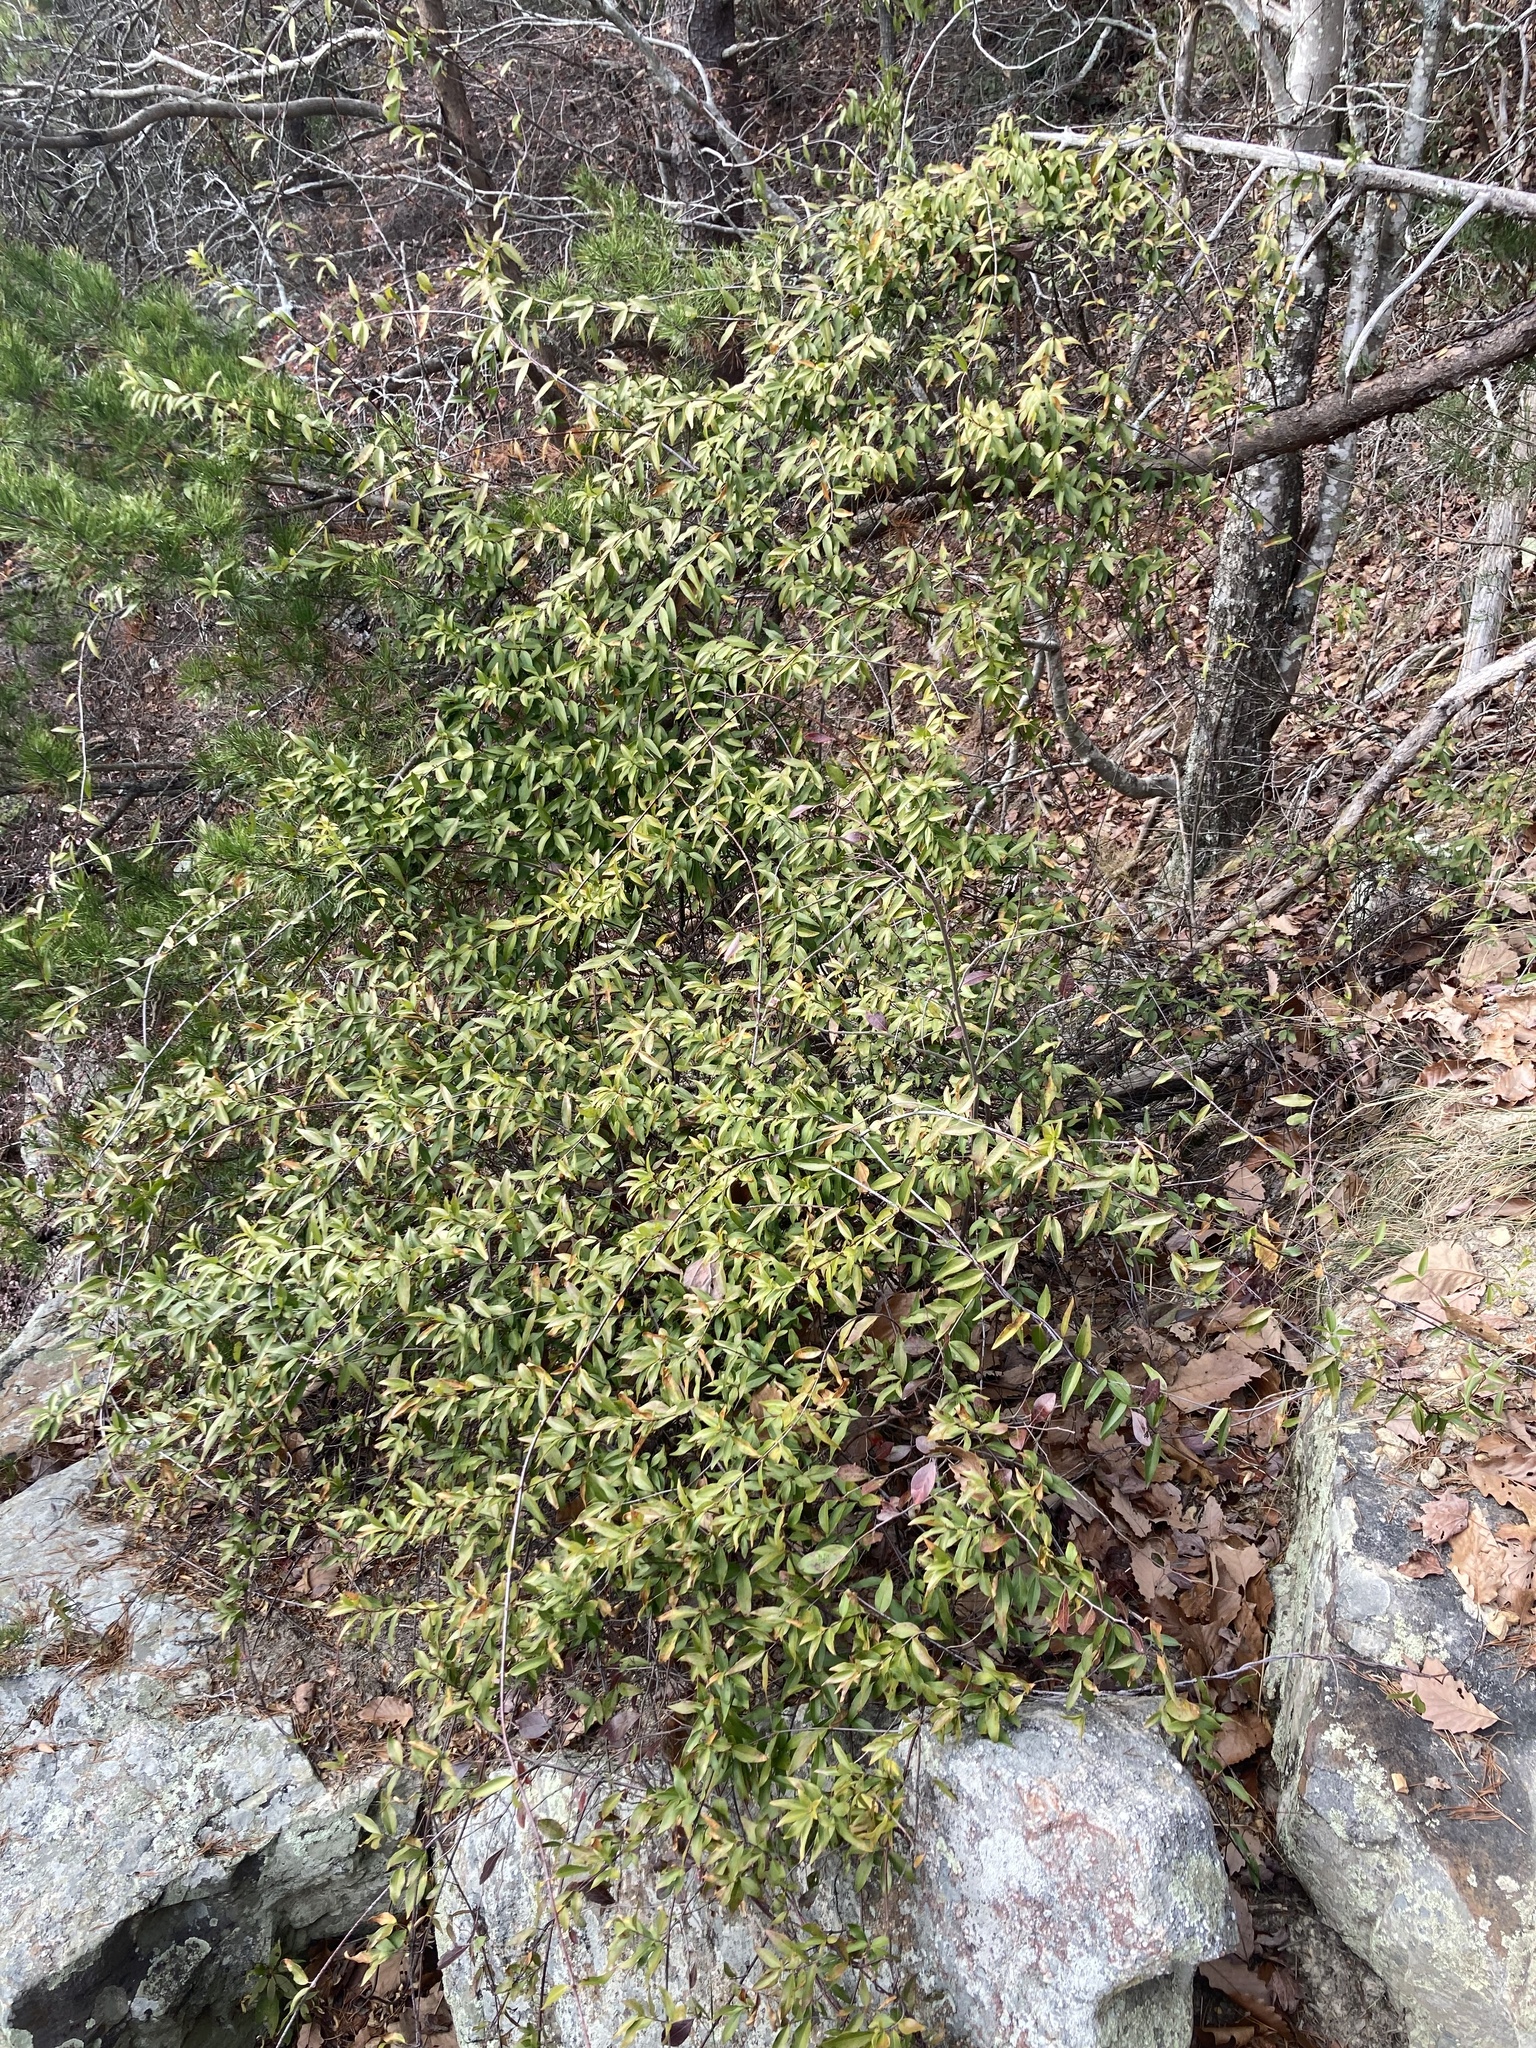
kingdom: Plantae
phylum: Tracheophyta
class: Magnoliopsida
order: Gentianales
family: Gelsemiaceae
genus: Gelsemium
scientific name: Gelsemium sempervirens
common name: Carolina-jasmine
